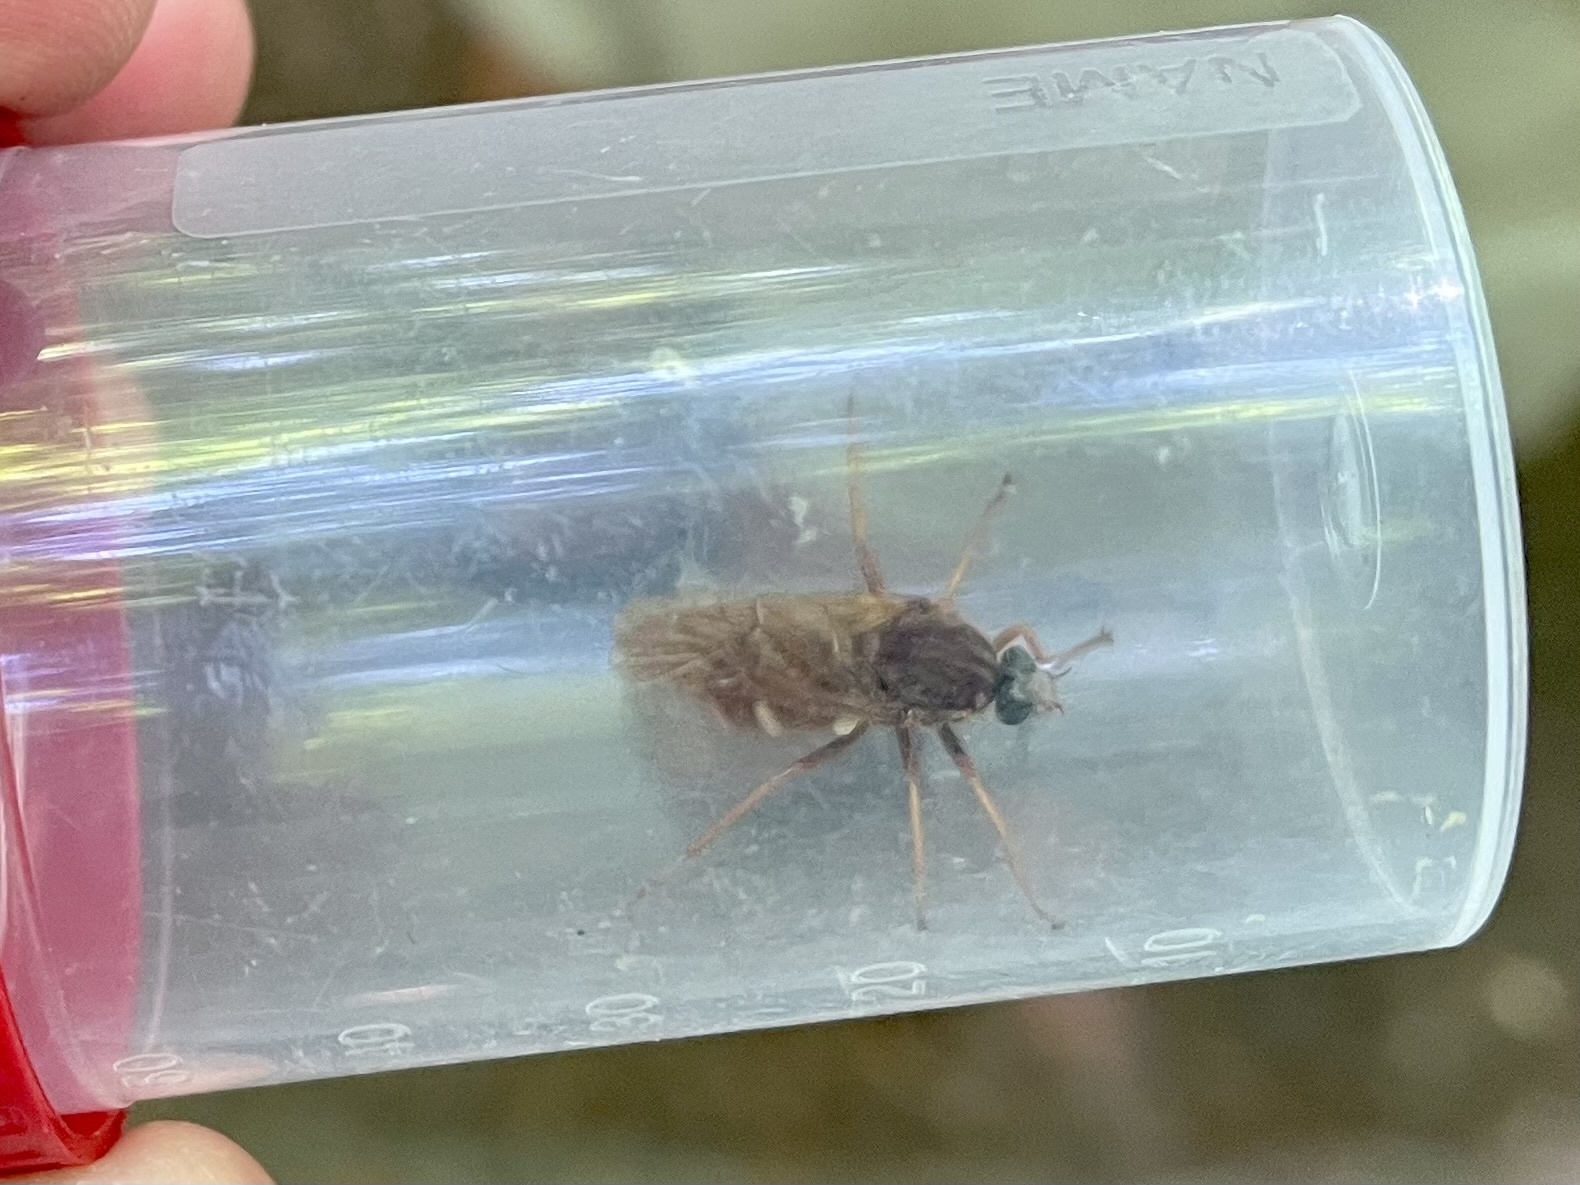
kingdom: Animalia
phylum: Arthropoda
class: Insecta
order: Diptera
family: Xylophagidae
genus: Coenomyia
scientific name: Coenomyia ferruginea
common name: Stink fly
